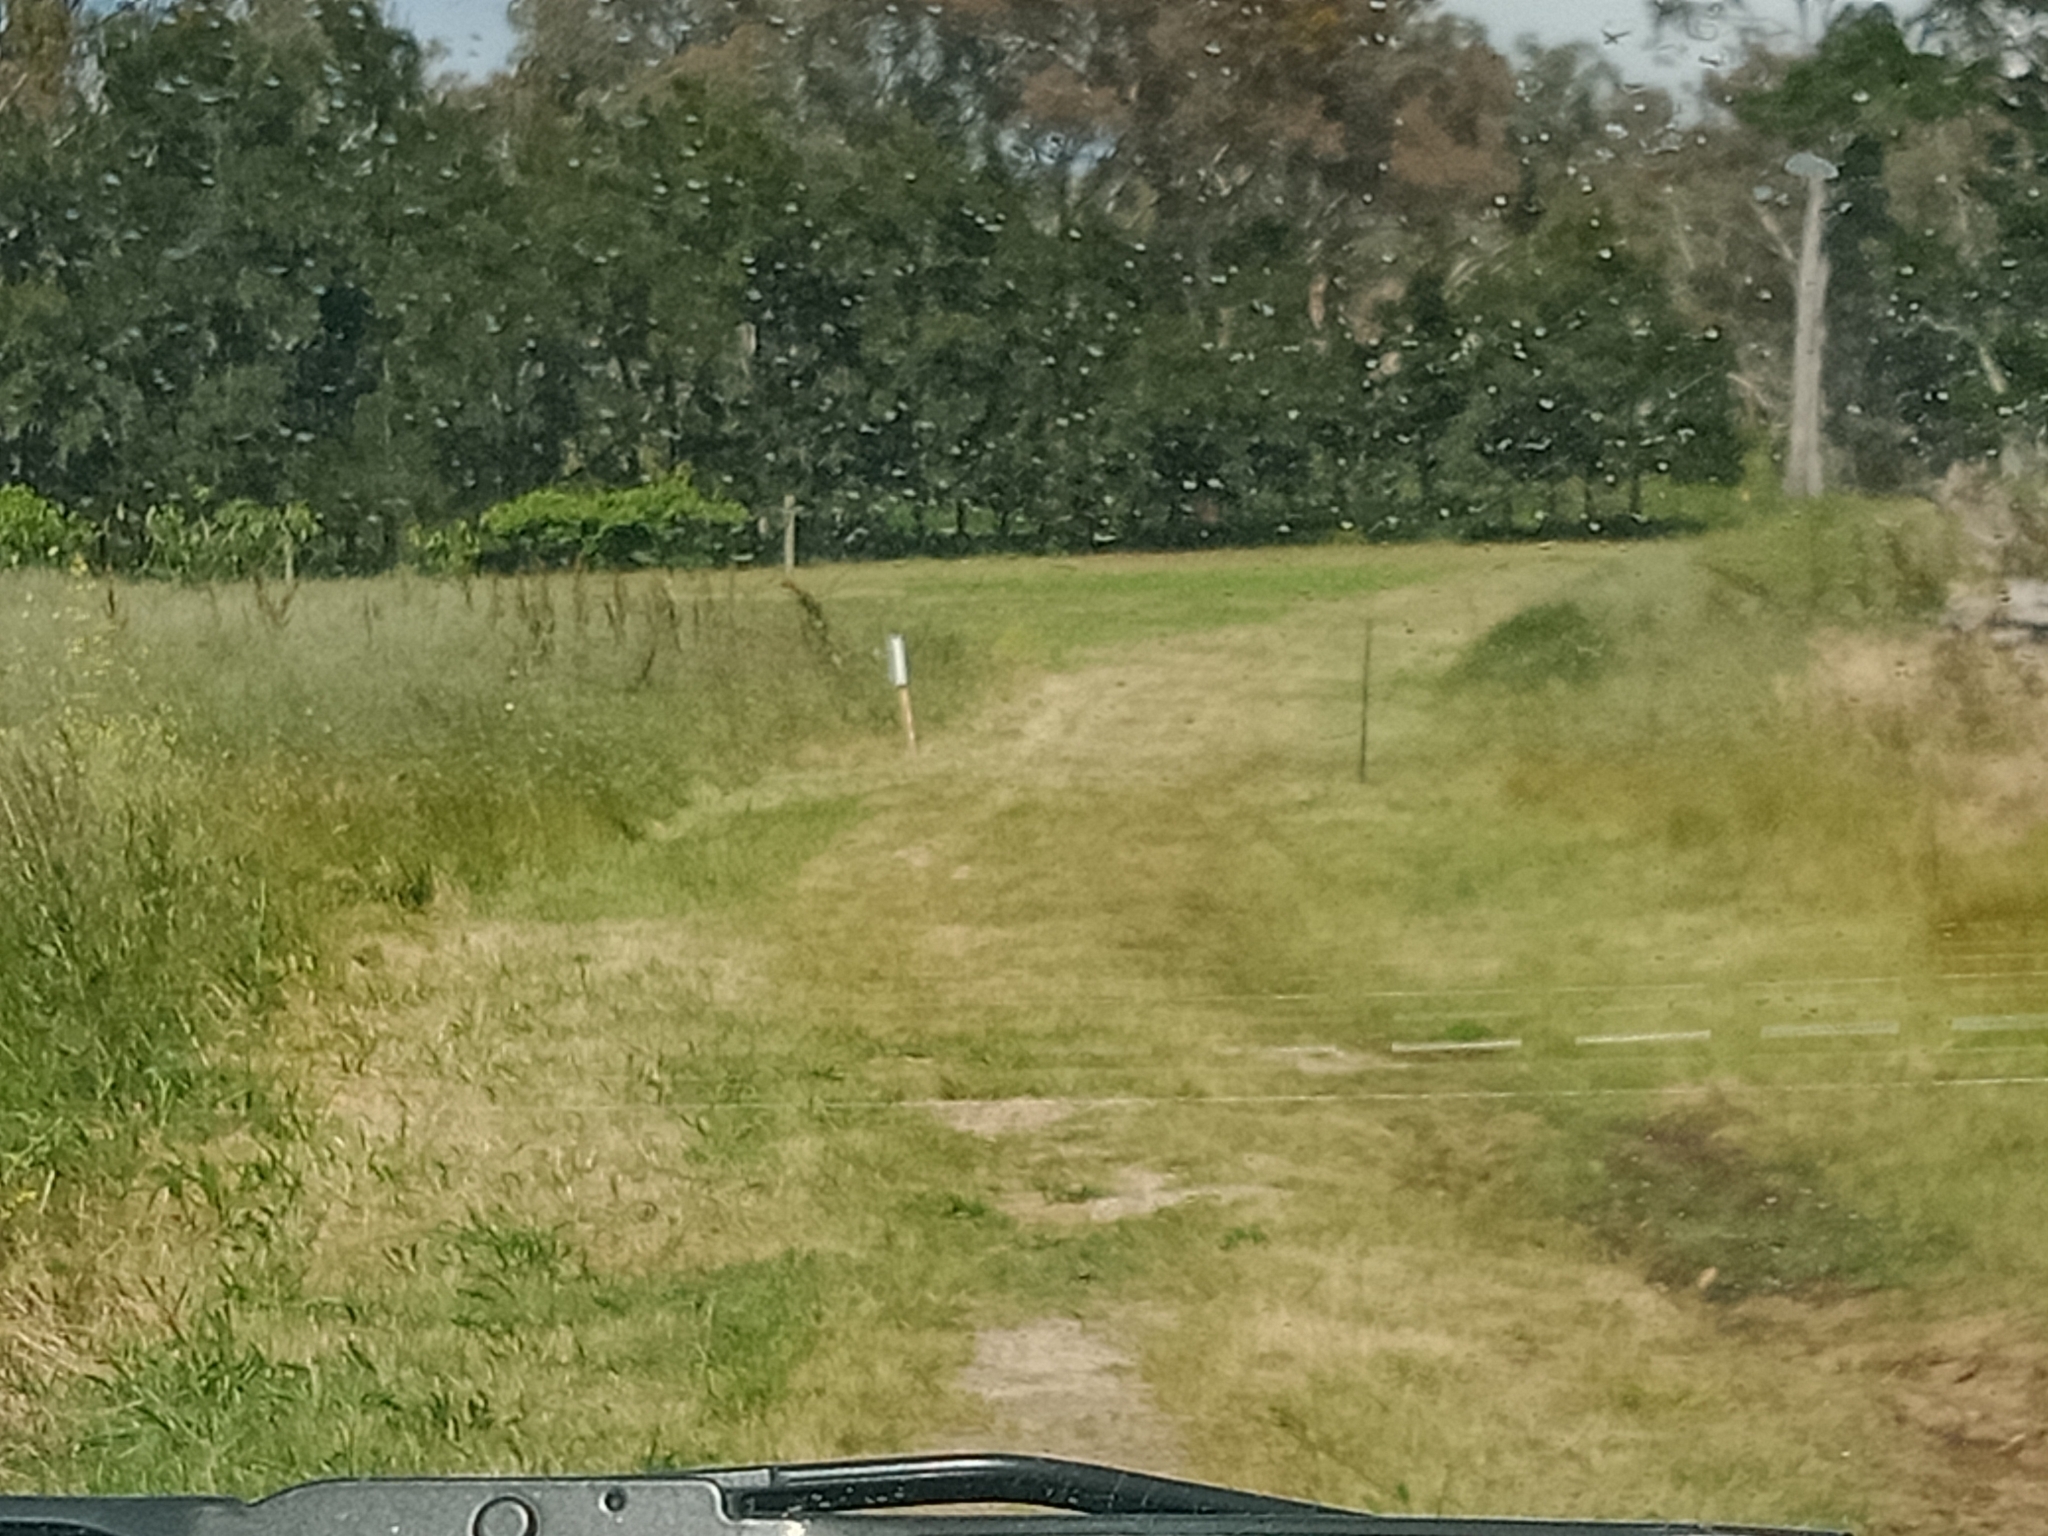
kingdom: Animalia
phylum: Chordata
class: Mammalia
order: Lagomorpha
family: Leporidae
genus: Oryctolagus
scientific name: Oryctolagus cuniculus
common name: European rabbit
